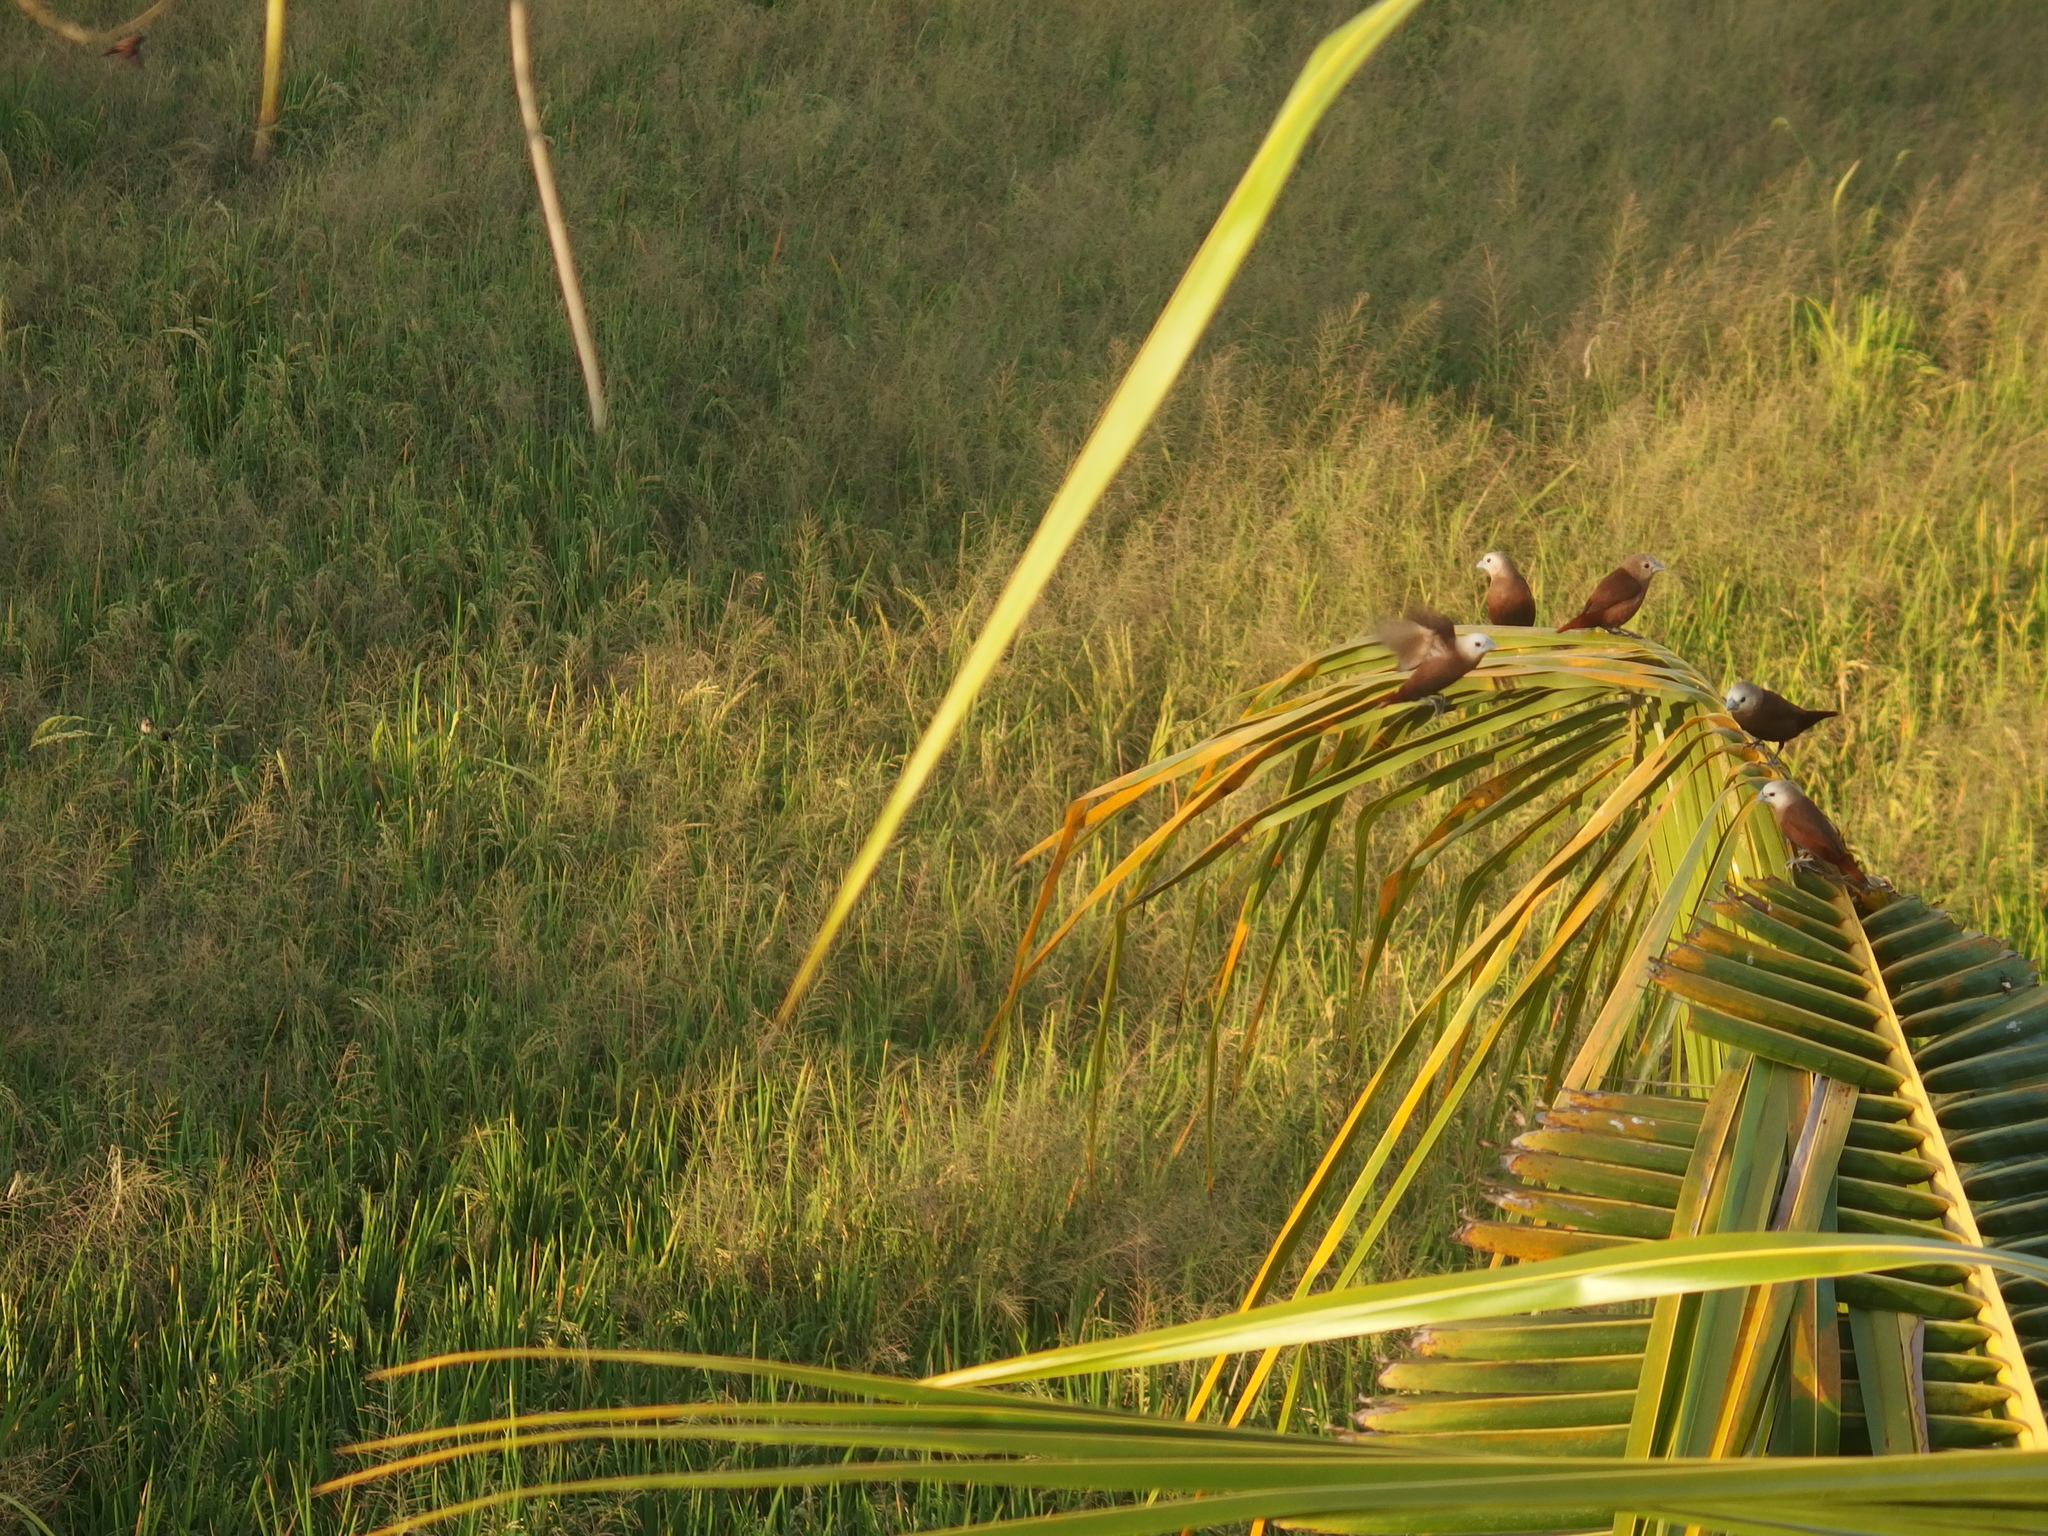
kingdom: Animalia
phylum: Chordata
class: Aves
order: Passeriformes
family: Estrildidae
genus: Lonchura
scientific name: Lonchura maja
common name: White-headed munia
